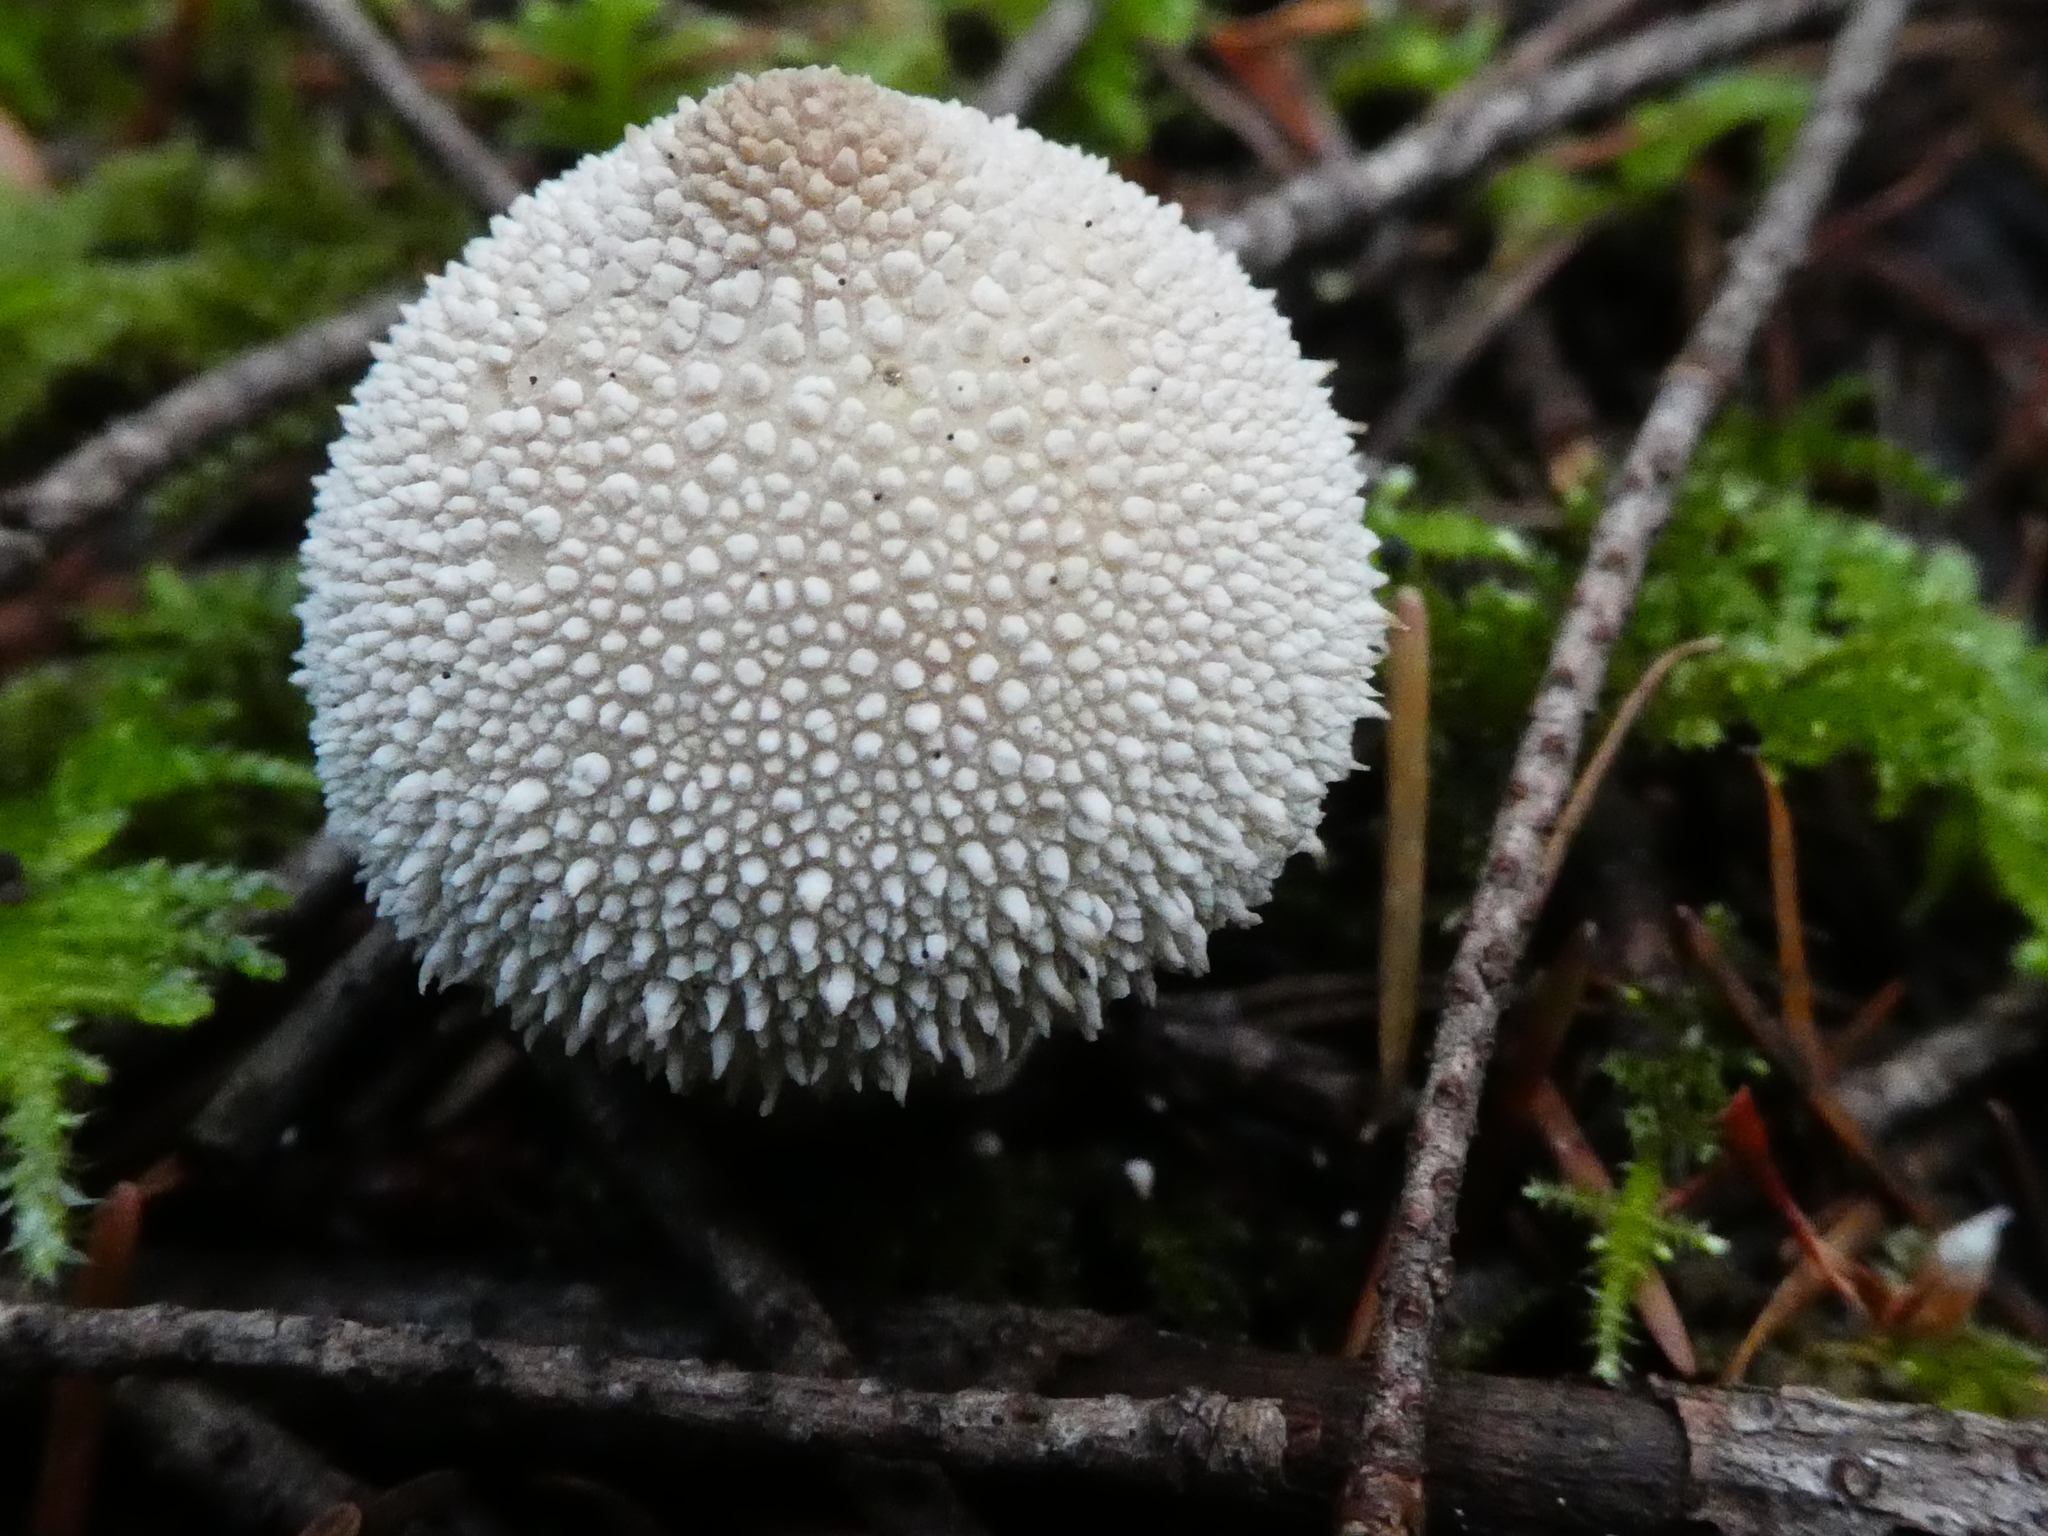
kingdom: Fungi
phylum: Basidiomycota
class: Agaricomycetes
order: Agaricales
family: Lycoperdaceae
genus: Lycoperdon
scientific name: Lycoperdon perlatum
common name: Common puffball
